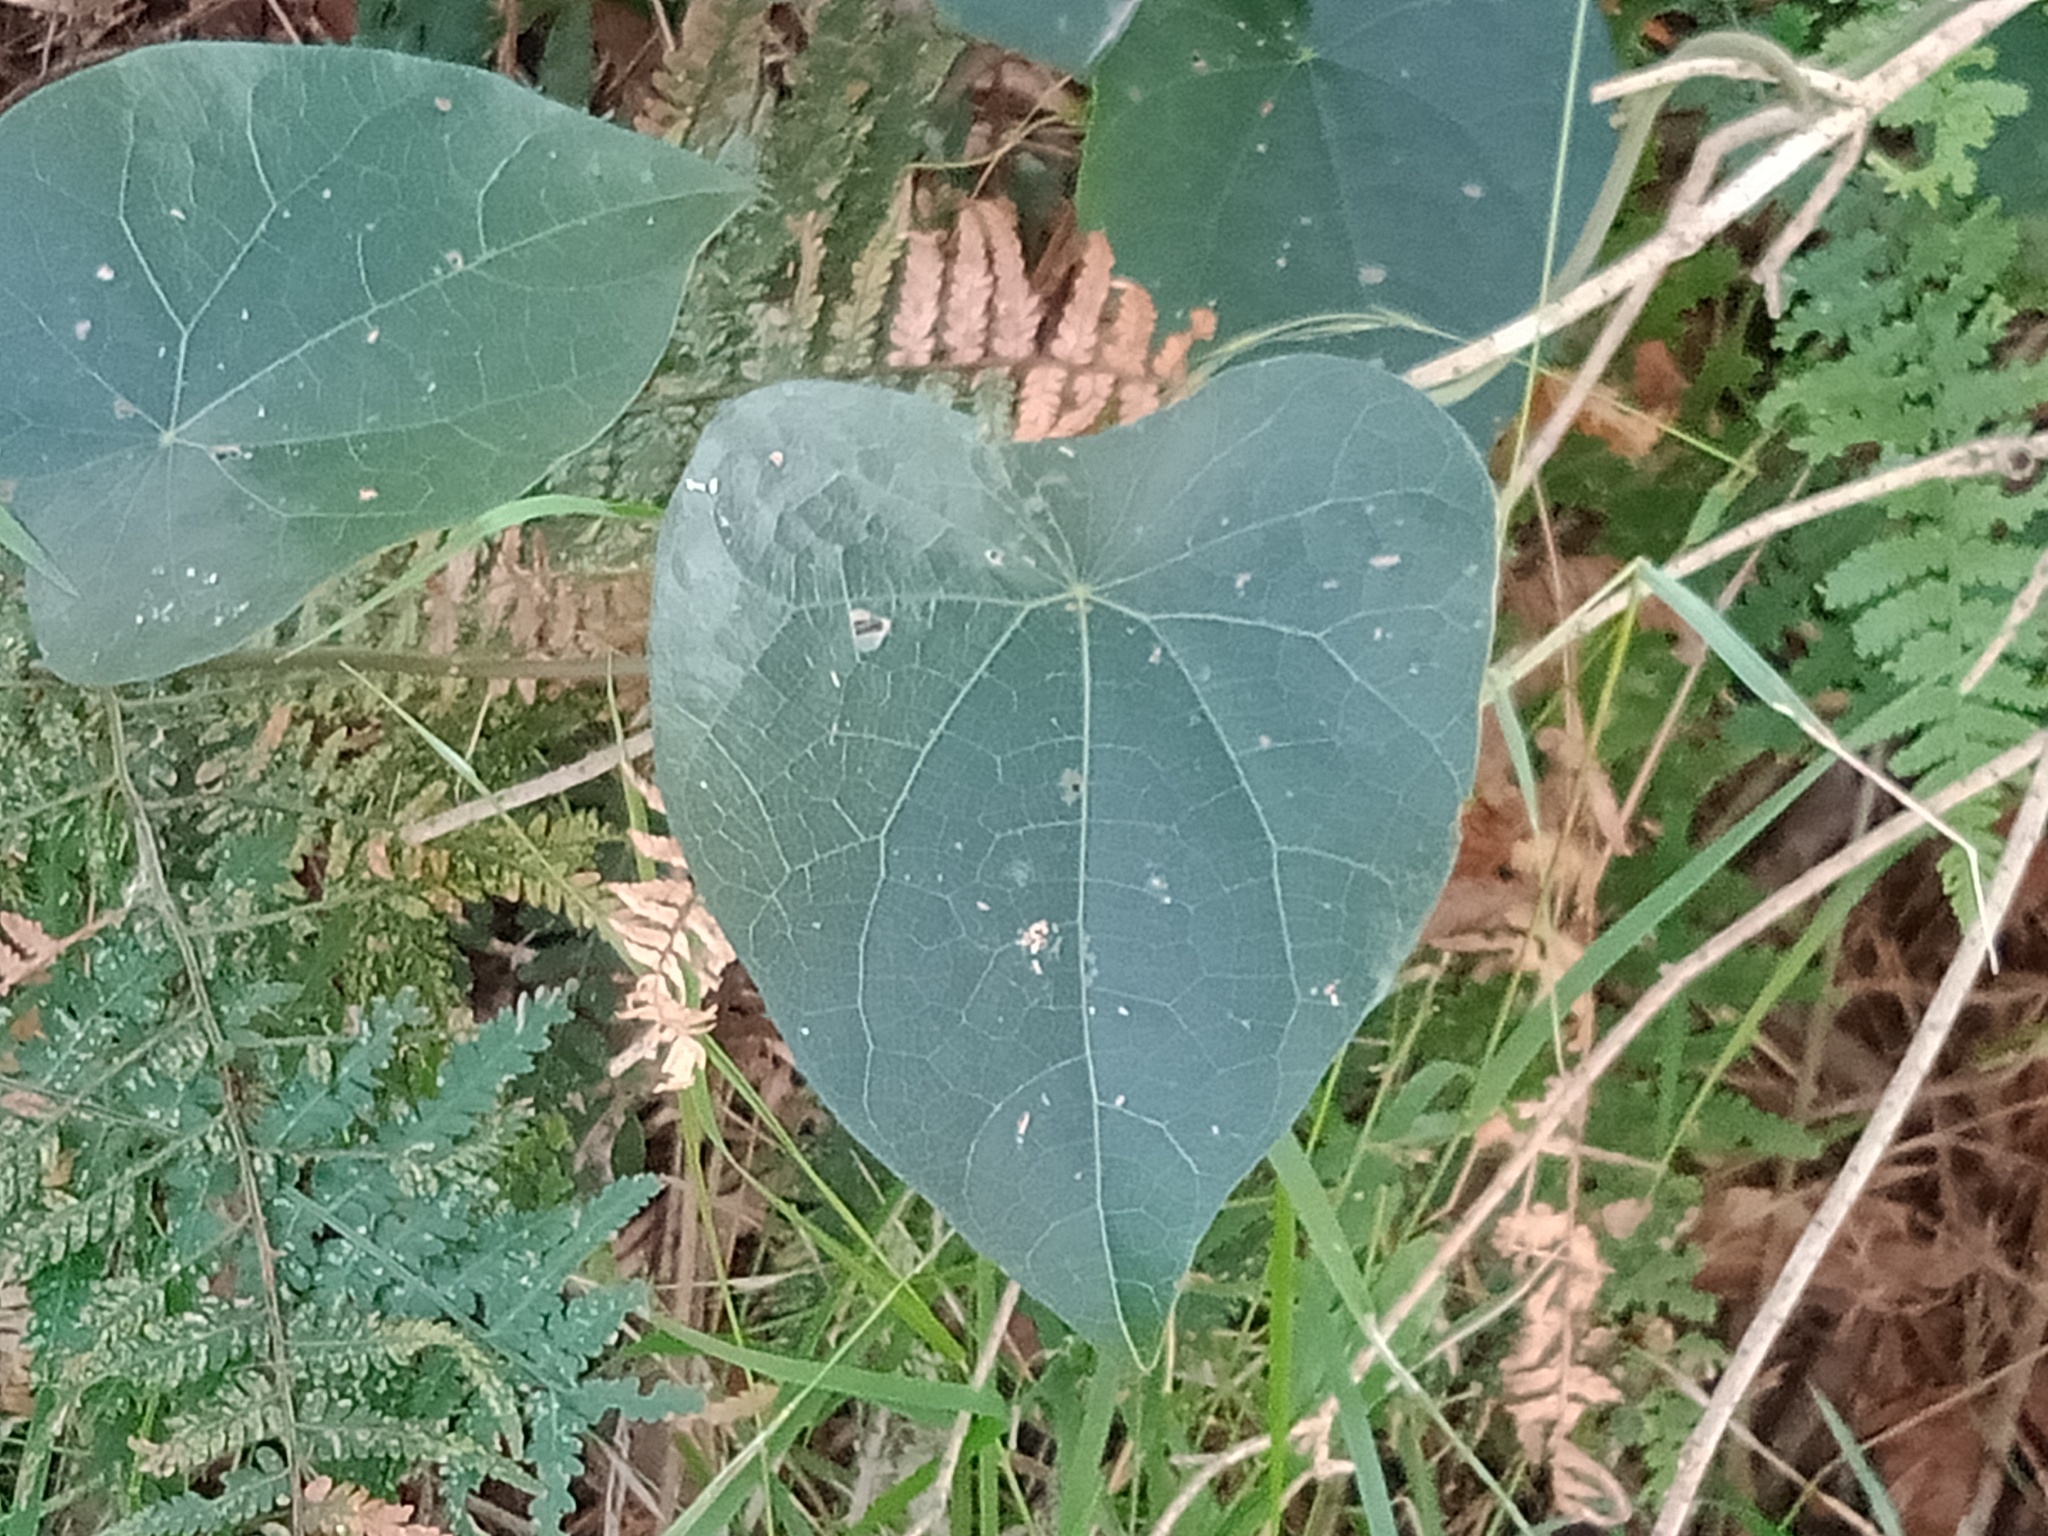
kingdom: Plantae
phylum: Tracheophyta
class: Magnoliopsida
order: Ranunculales
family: Menispermaceae
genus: Stephania
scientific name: Stephania japonica
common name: Snake vine
